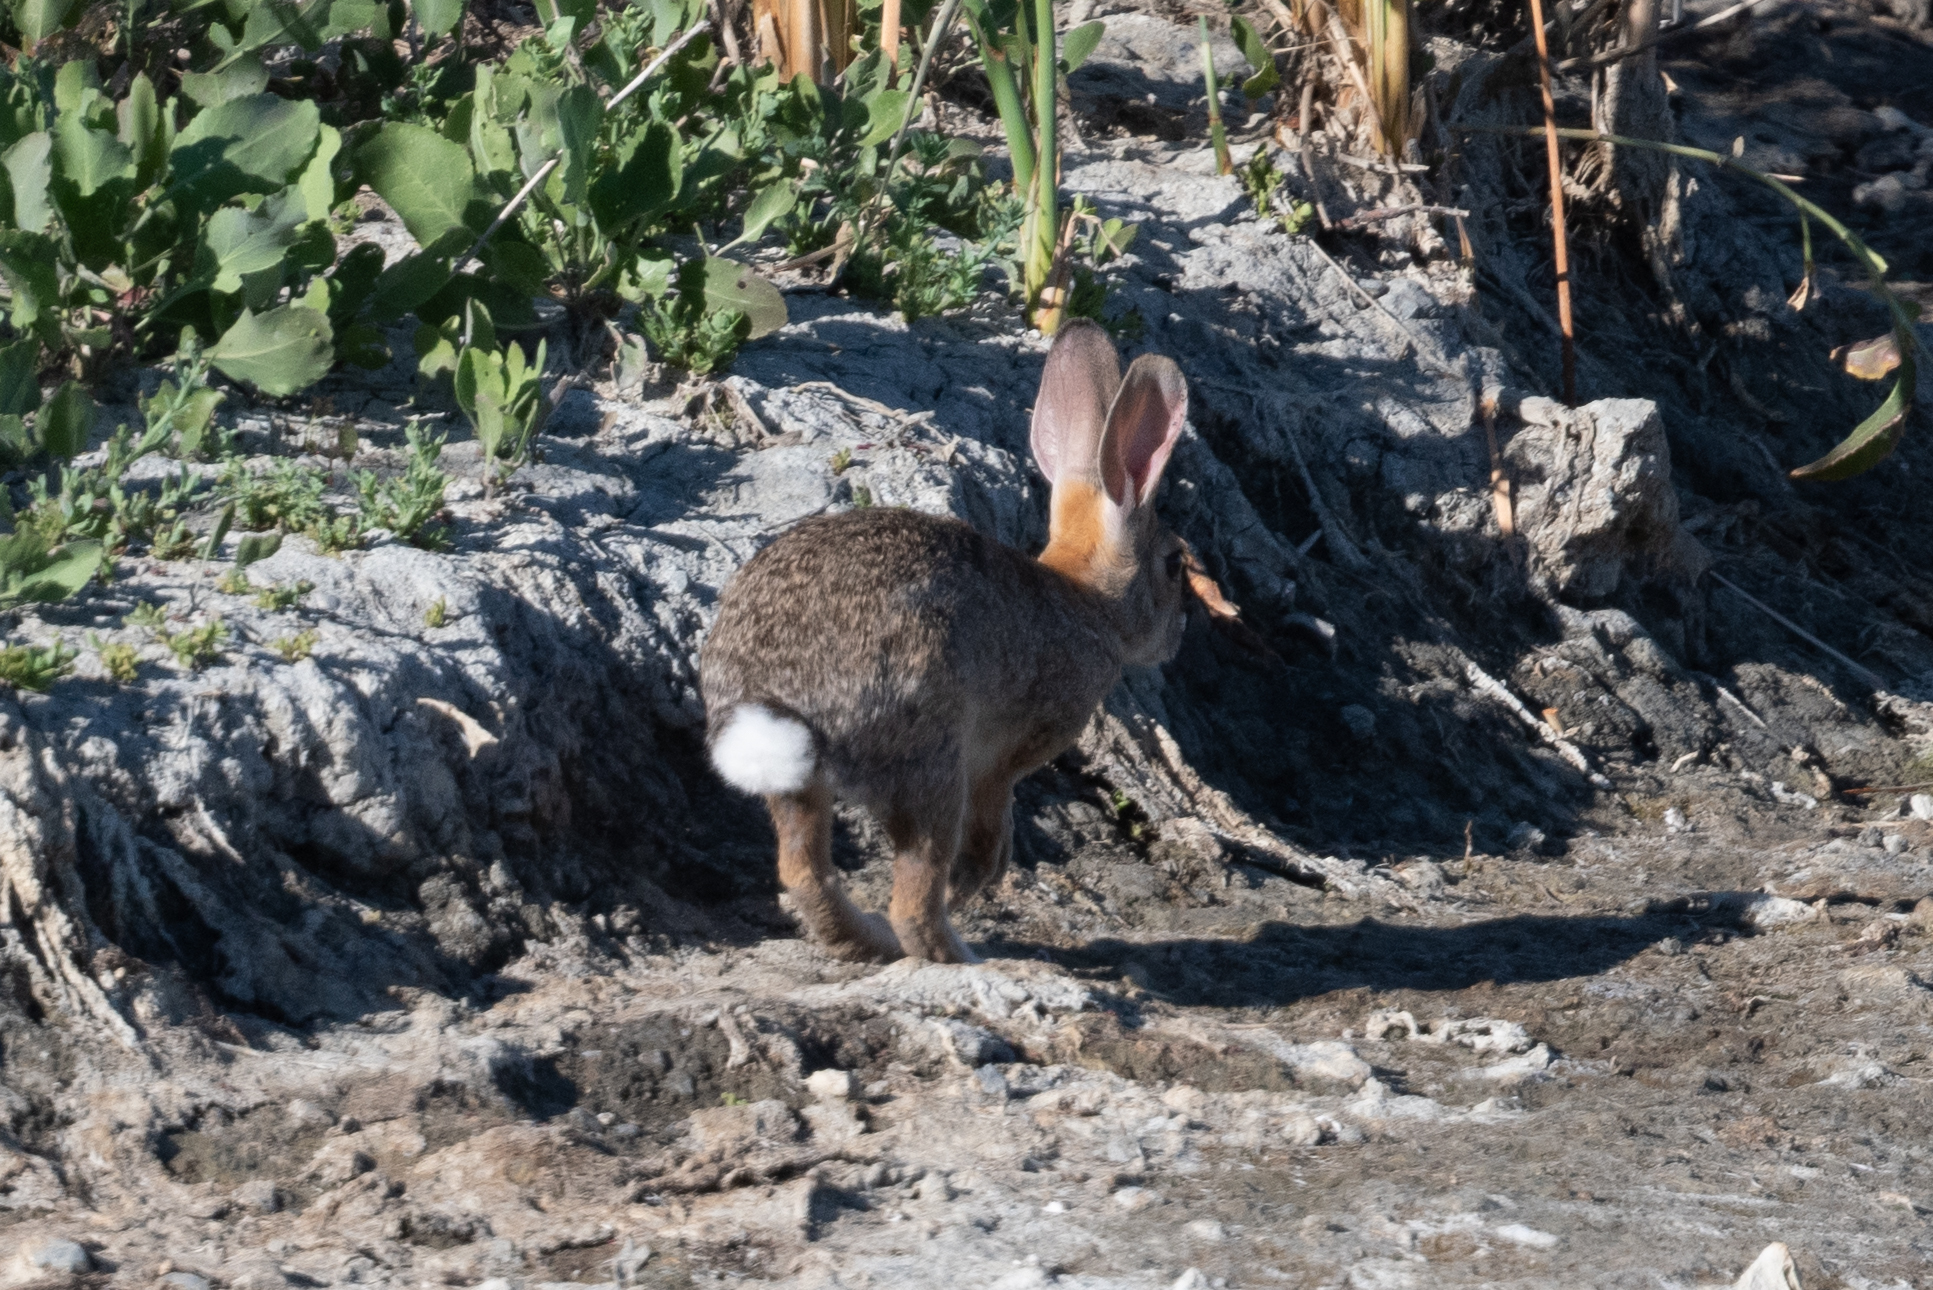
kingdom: Animalia
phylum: Chordata
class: Mammalia
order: Lagomorpha
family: Leporidae
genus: Sylvilagus
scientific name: Sylvilagus audubonii
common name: Desert cottontail
